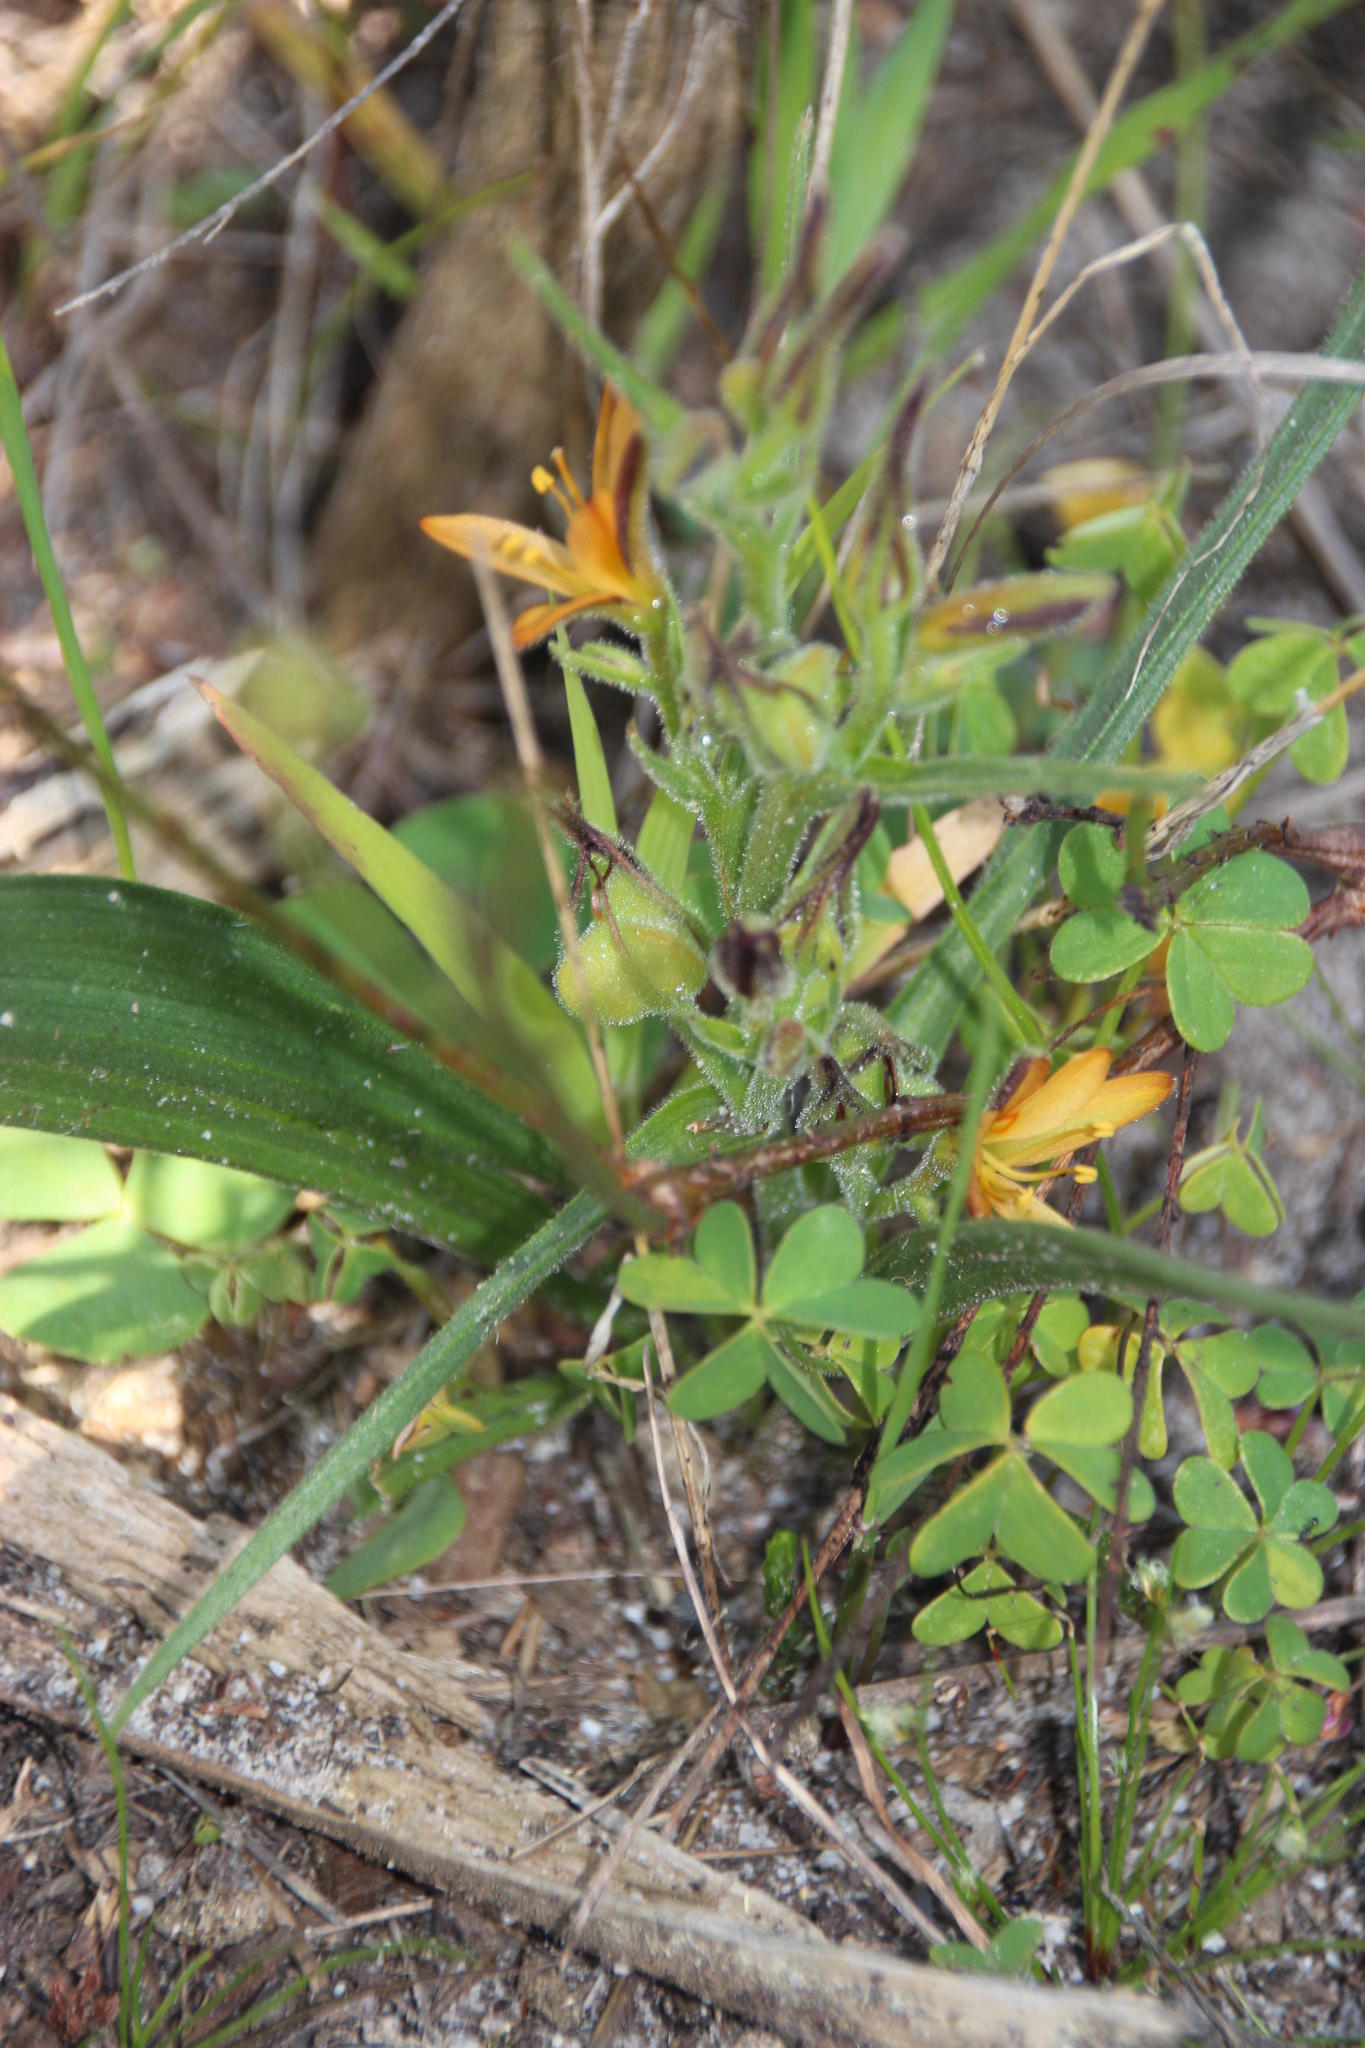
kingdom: Plantae
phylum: Tracheophyta
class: Liliopsida
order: Commelinales
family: Haemodoraceae
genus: Wachendorfia
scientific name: Wachendorfia multiflora
